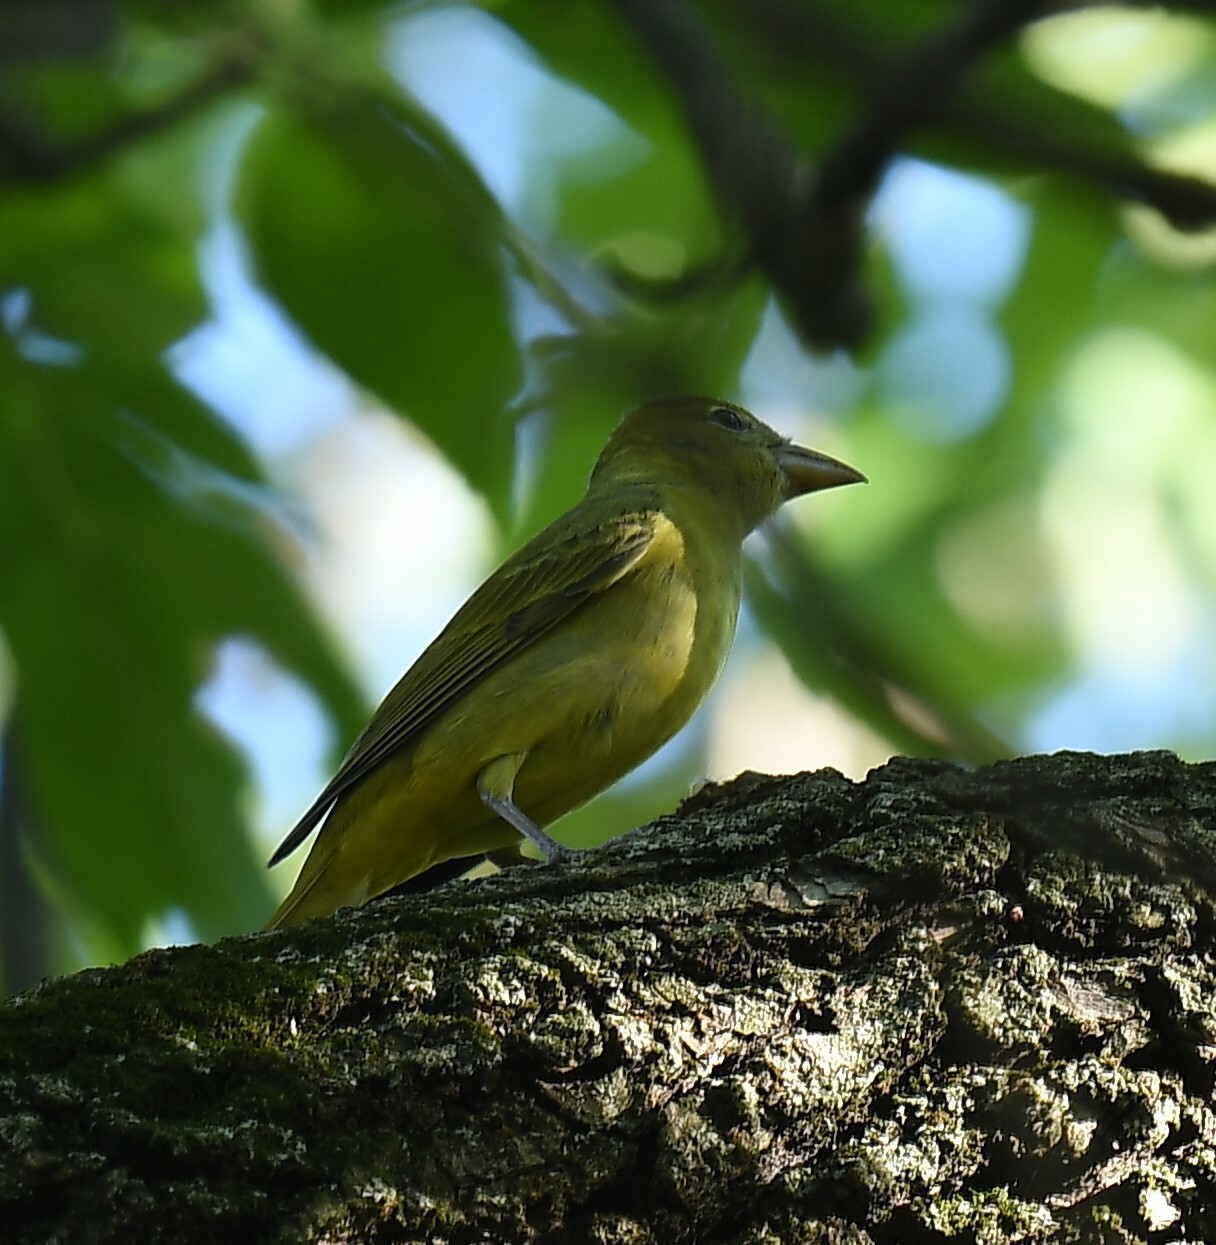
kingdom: Animalia
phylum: Chordata
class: Aves
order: Passeriformes
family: Cardinalidae
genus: Piranga
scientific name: Piranga rubra
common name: Summer tanager
